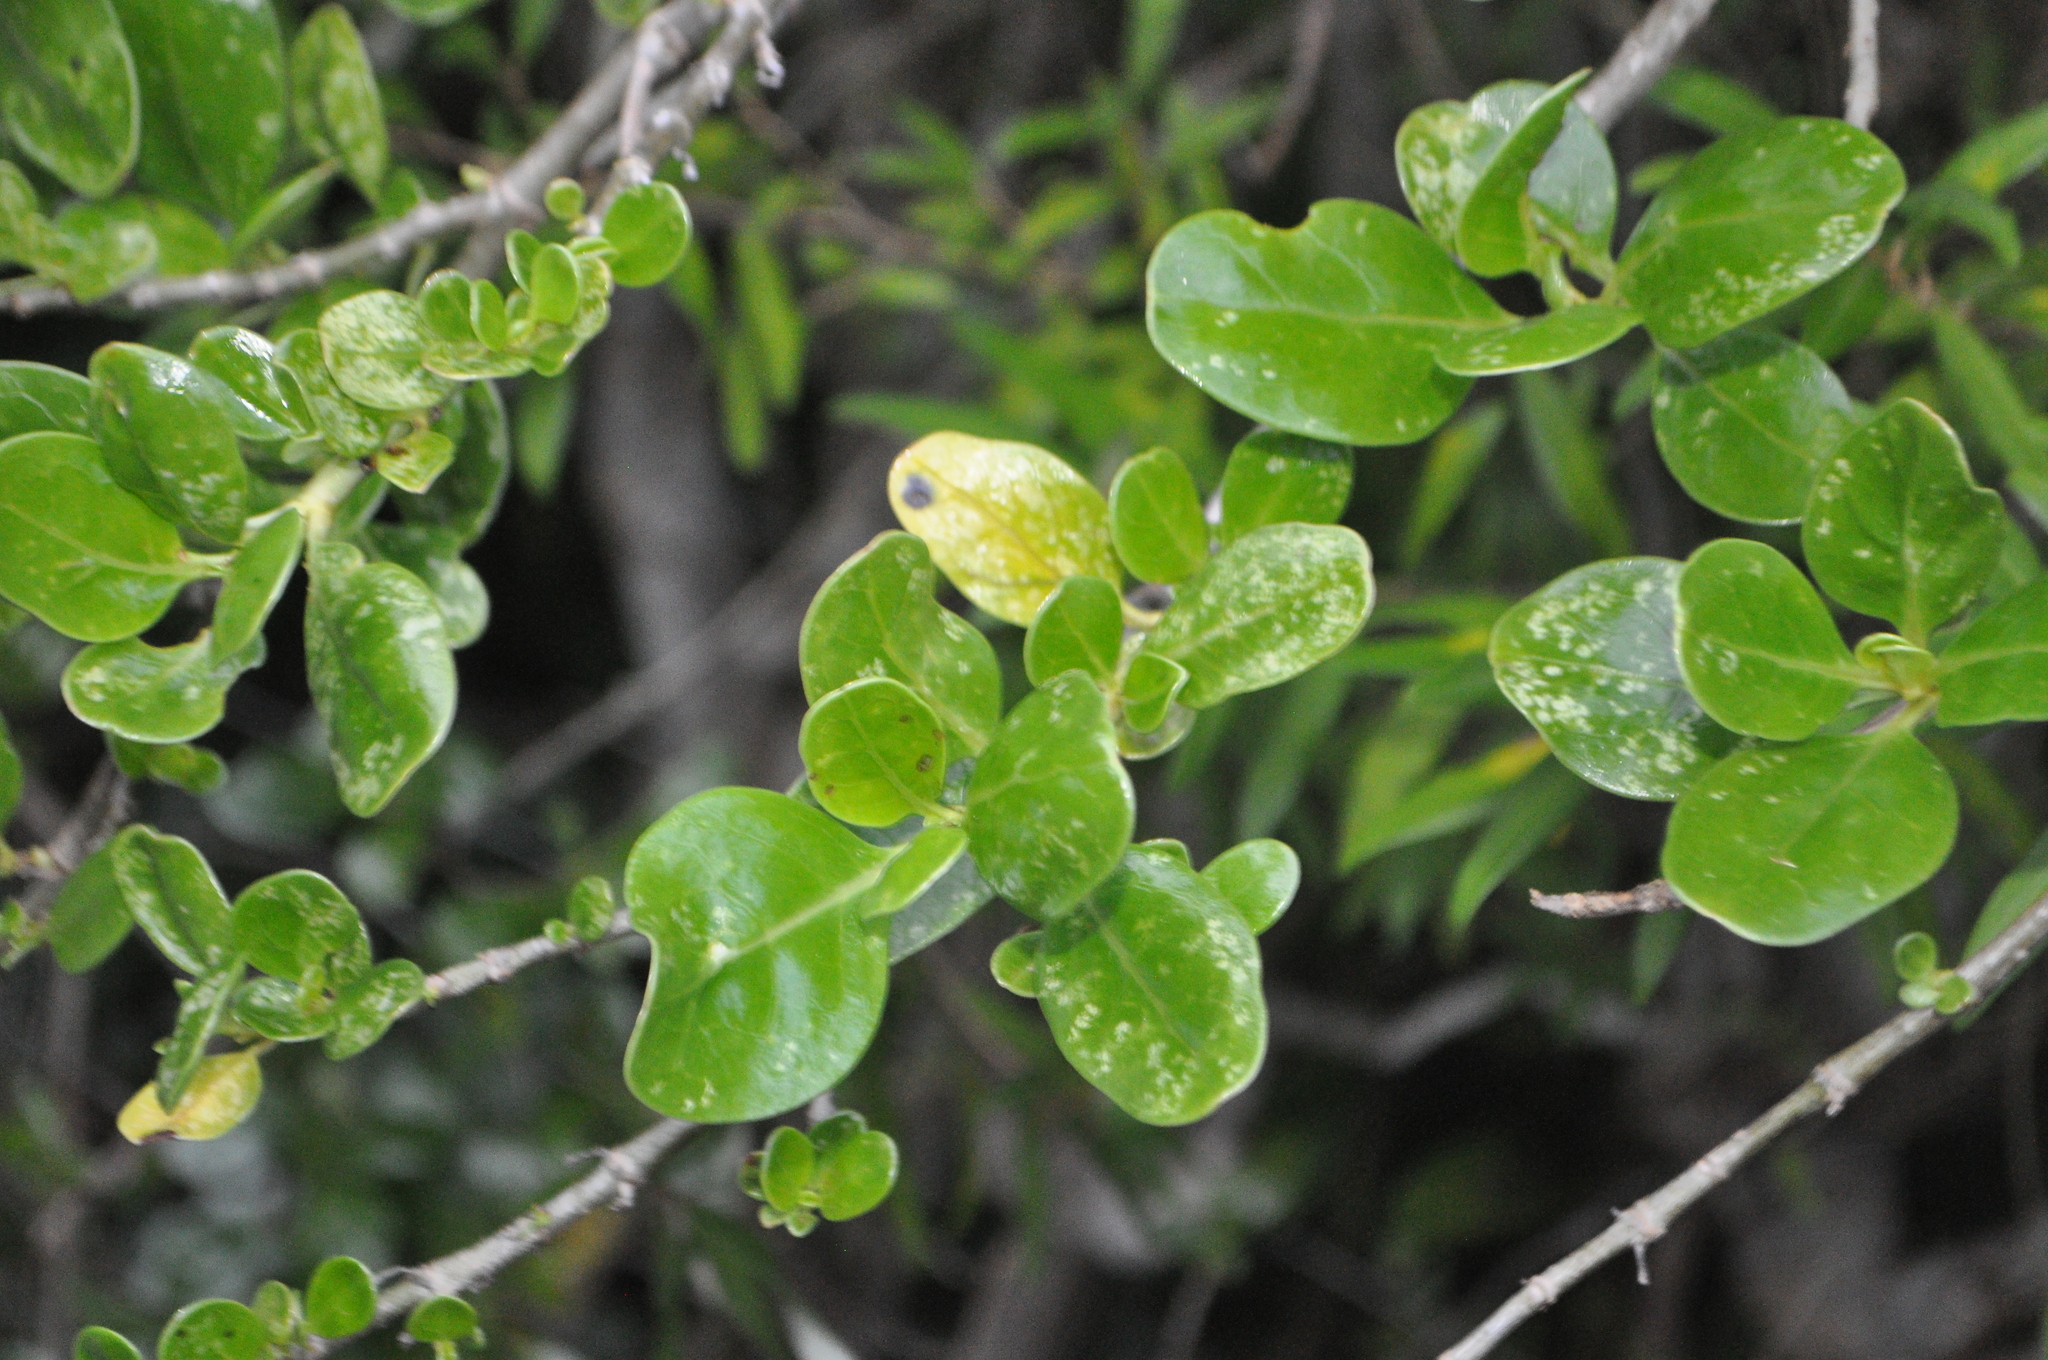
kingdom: Plantae
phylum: Tracheophyta
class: Magnoliopsida
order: Gentianales
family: Rubiaceae
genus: Coprosma
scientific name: Coprosma repens
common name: Tree bedstraw
